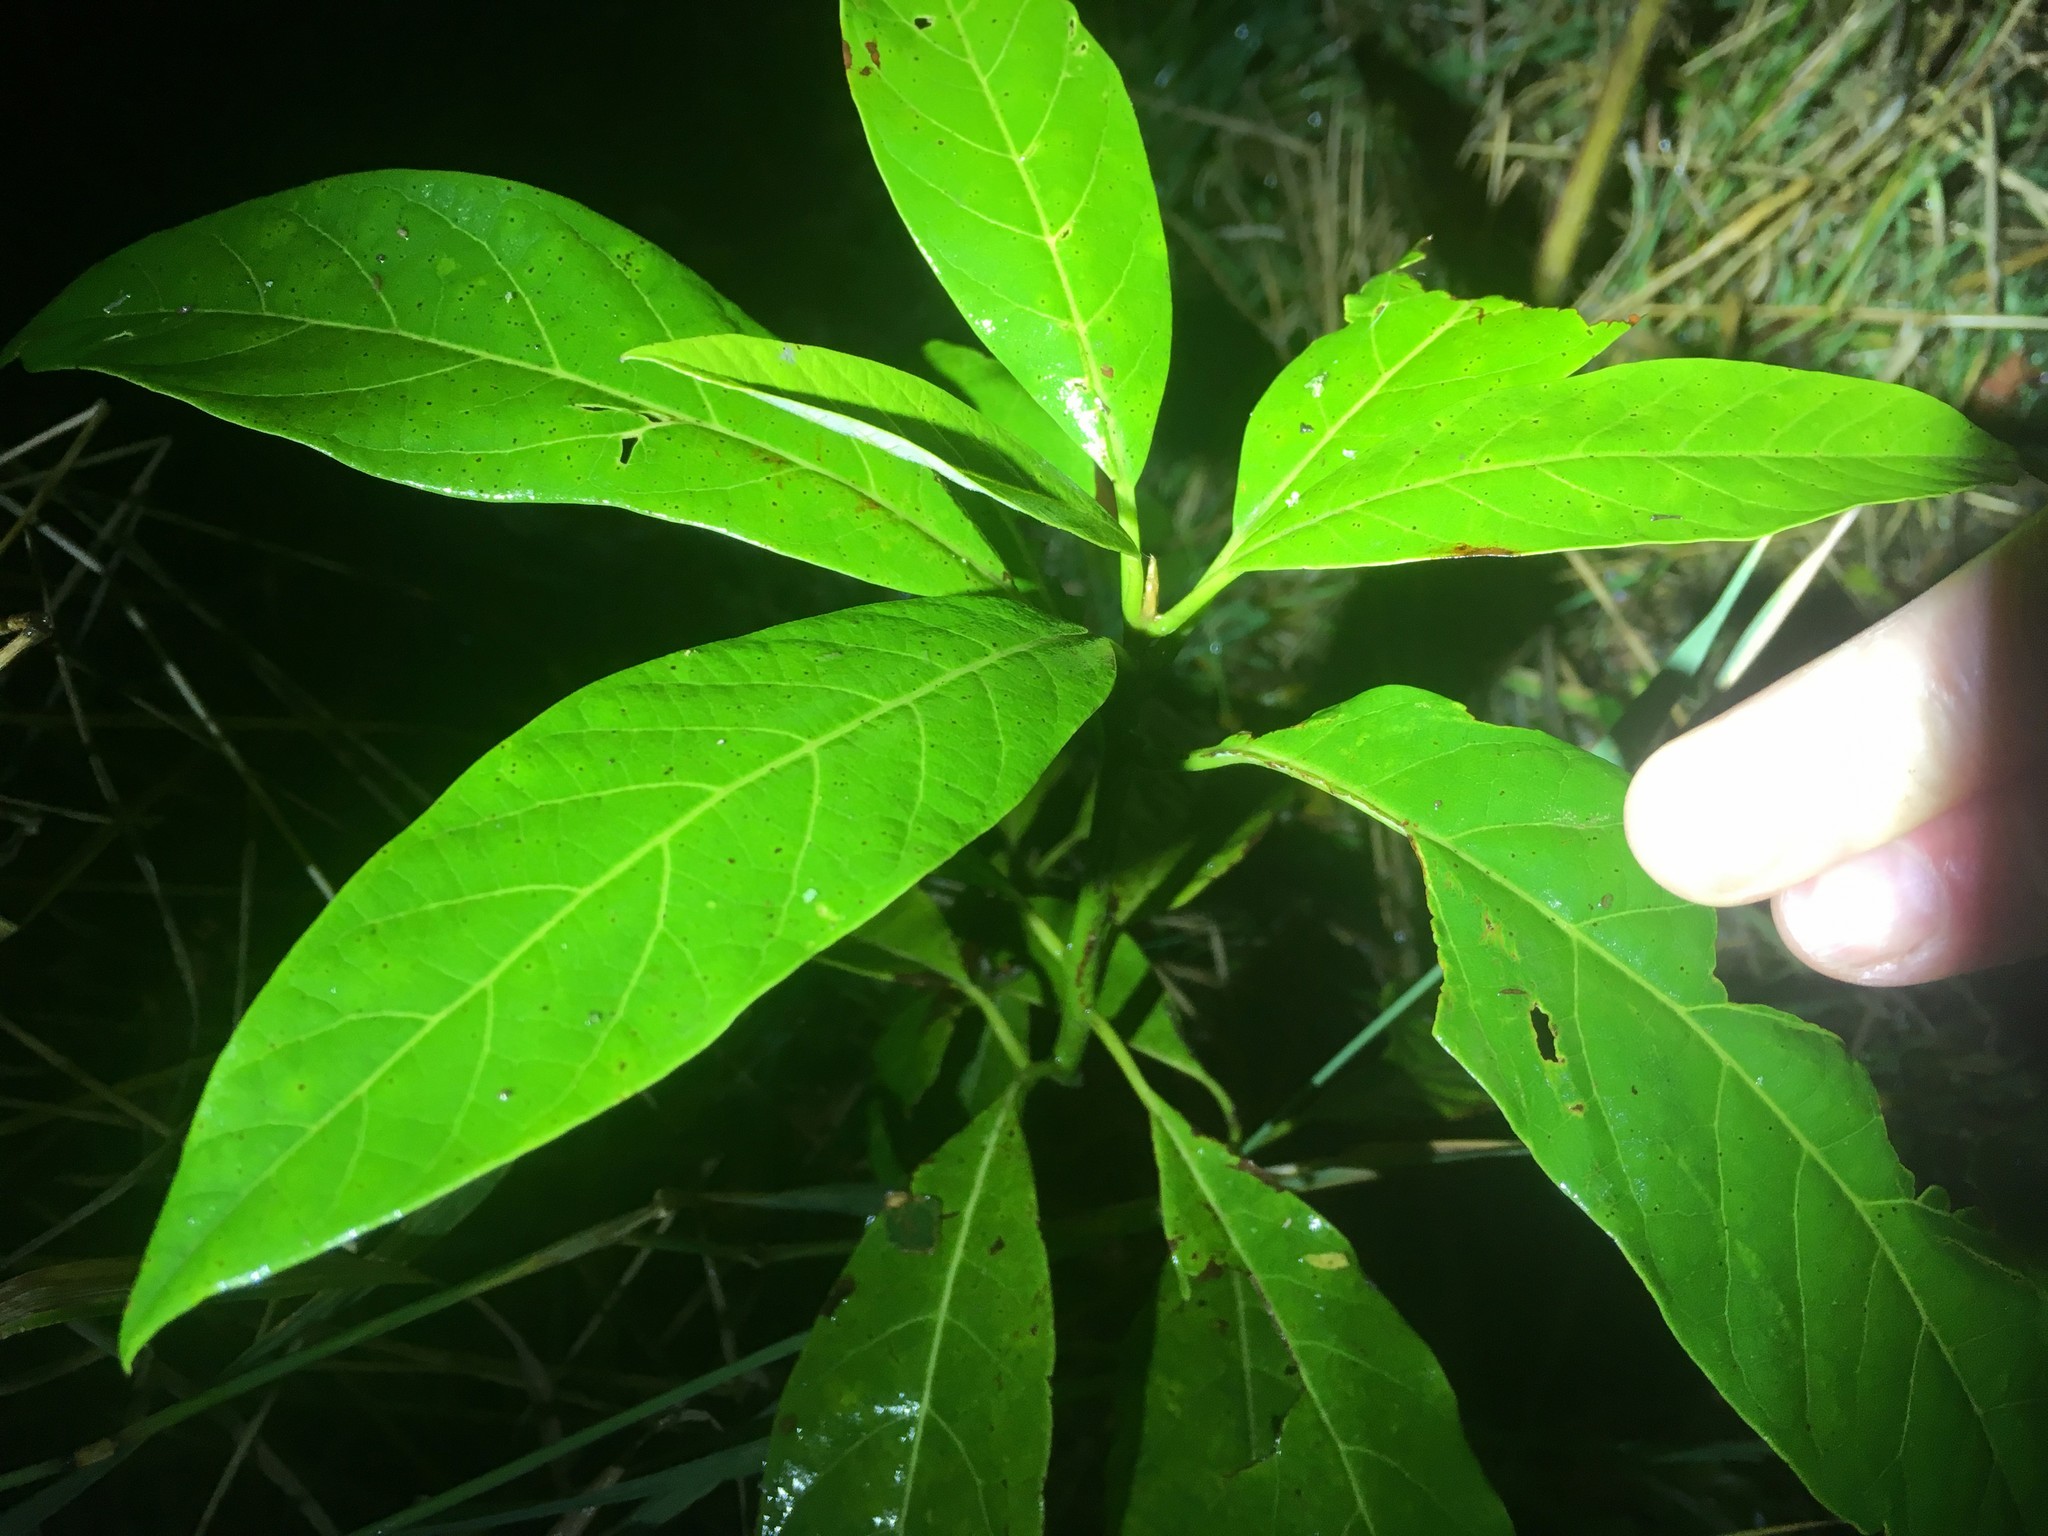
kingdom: Plantae
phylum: Tracheophyta
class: Magnoliopsida
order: Laurales
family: Lauraceae
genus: Persea
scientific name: Persea americana
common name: Avocado
